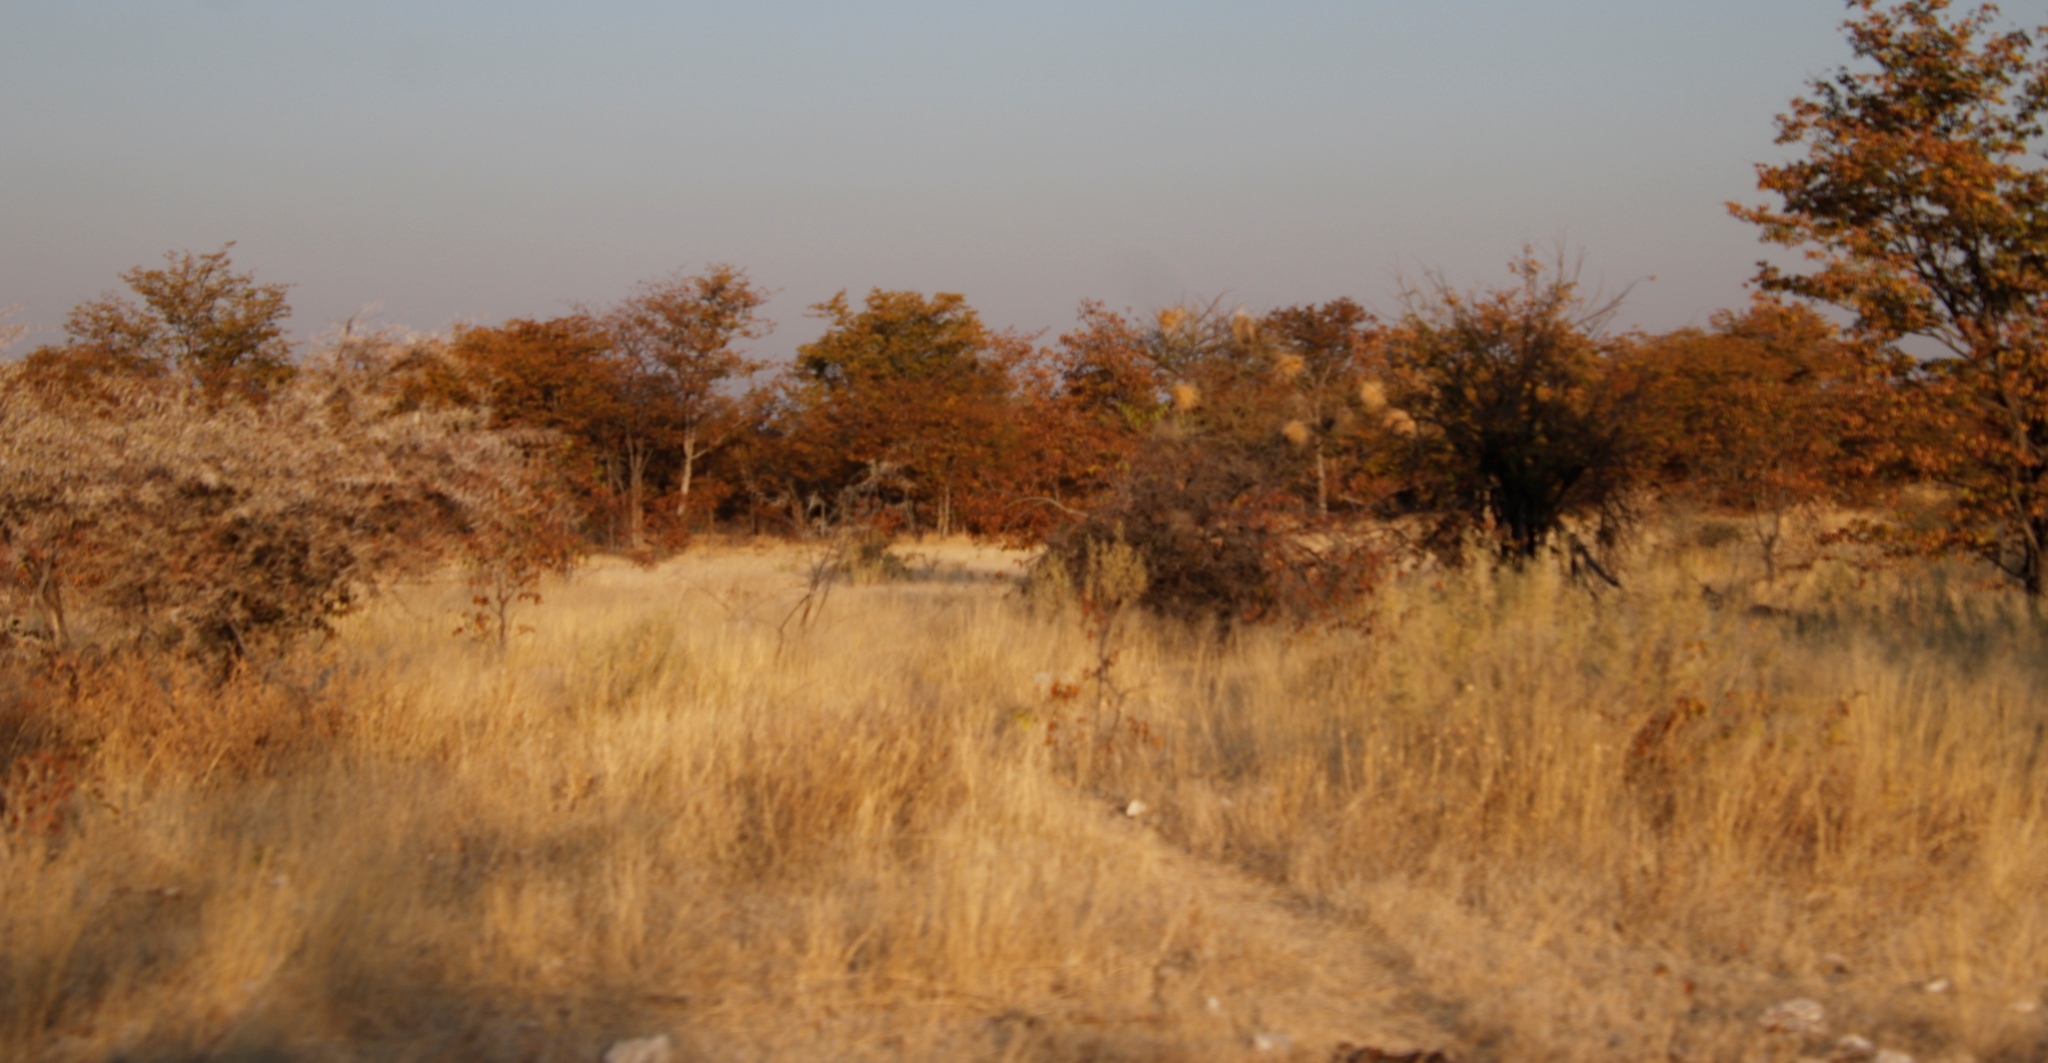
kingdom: Animalia
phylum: Chordata
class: Aves
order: Passeriformes
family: Passeridae
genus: Plocepasser
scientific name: Plocepasser mahali
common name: White-browed sparrow-weaver
